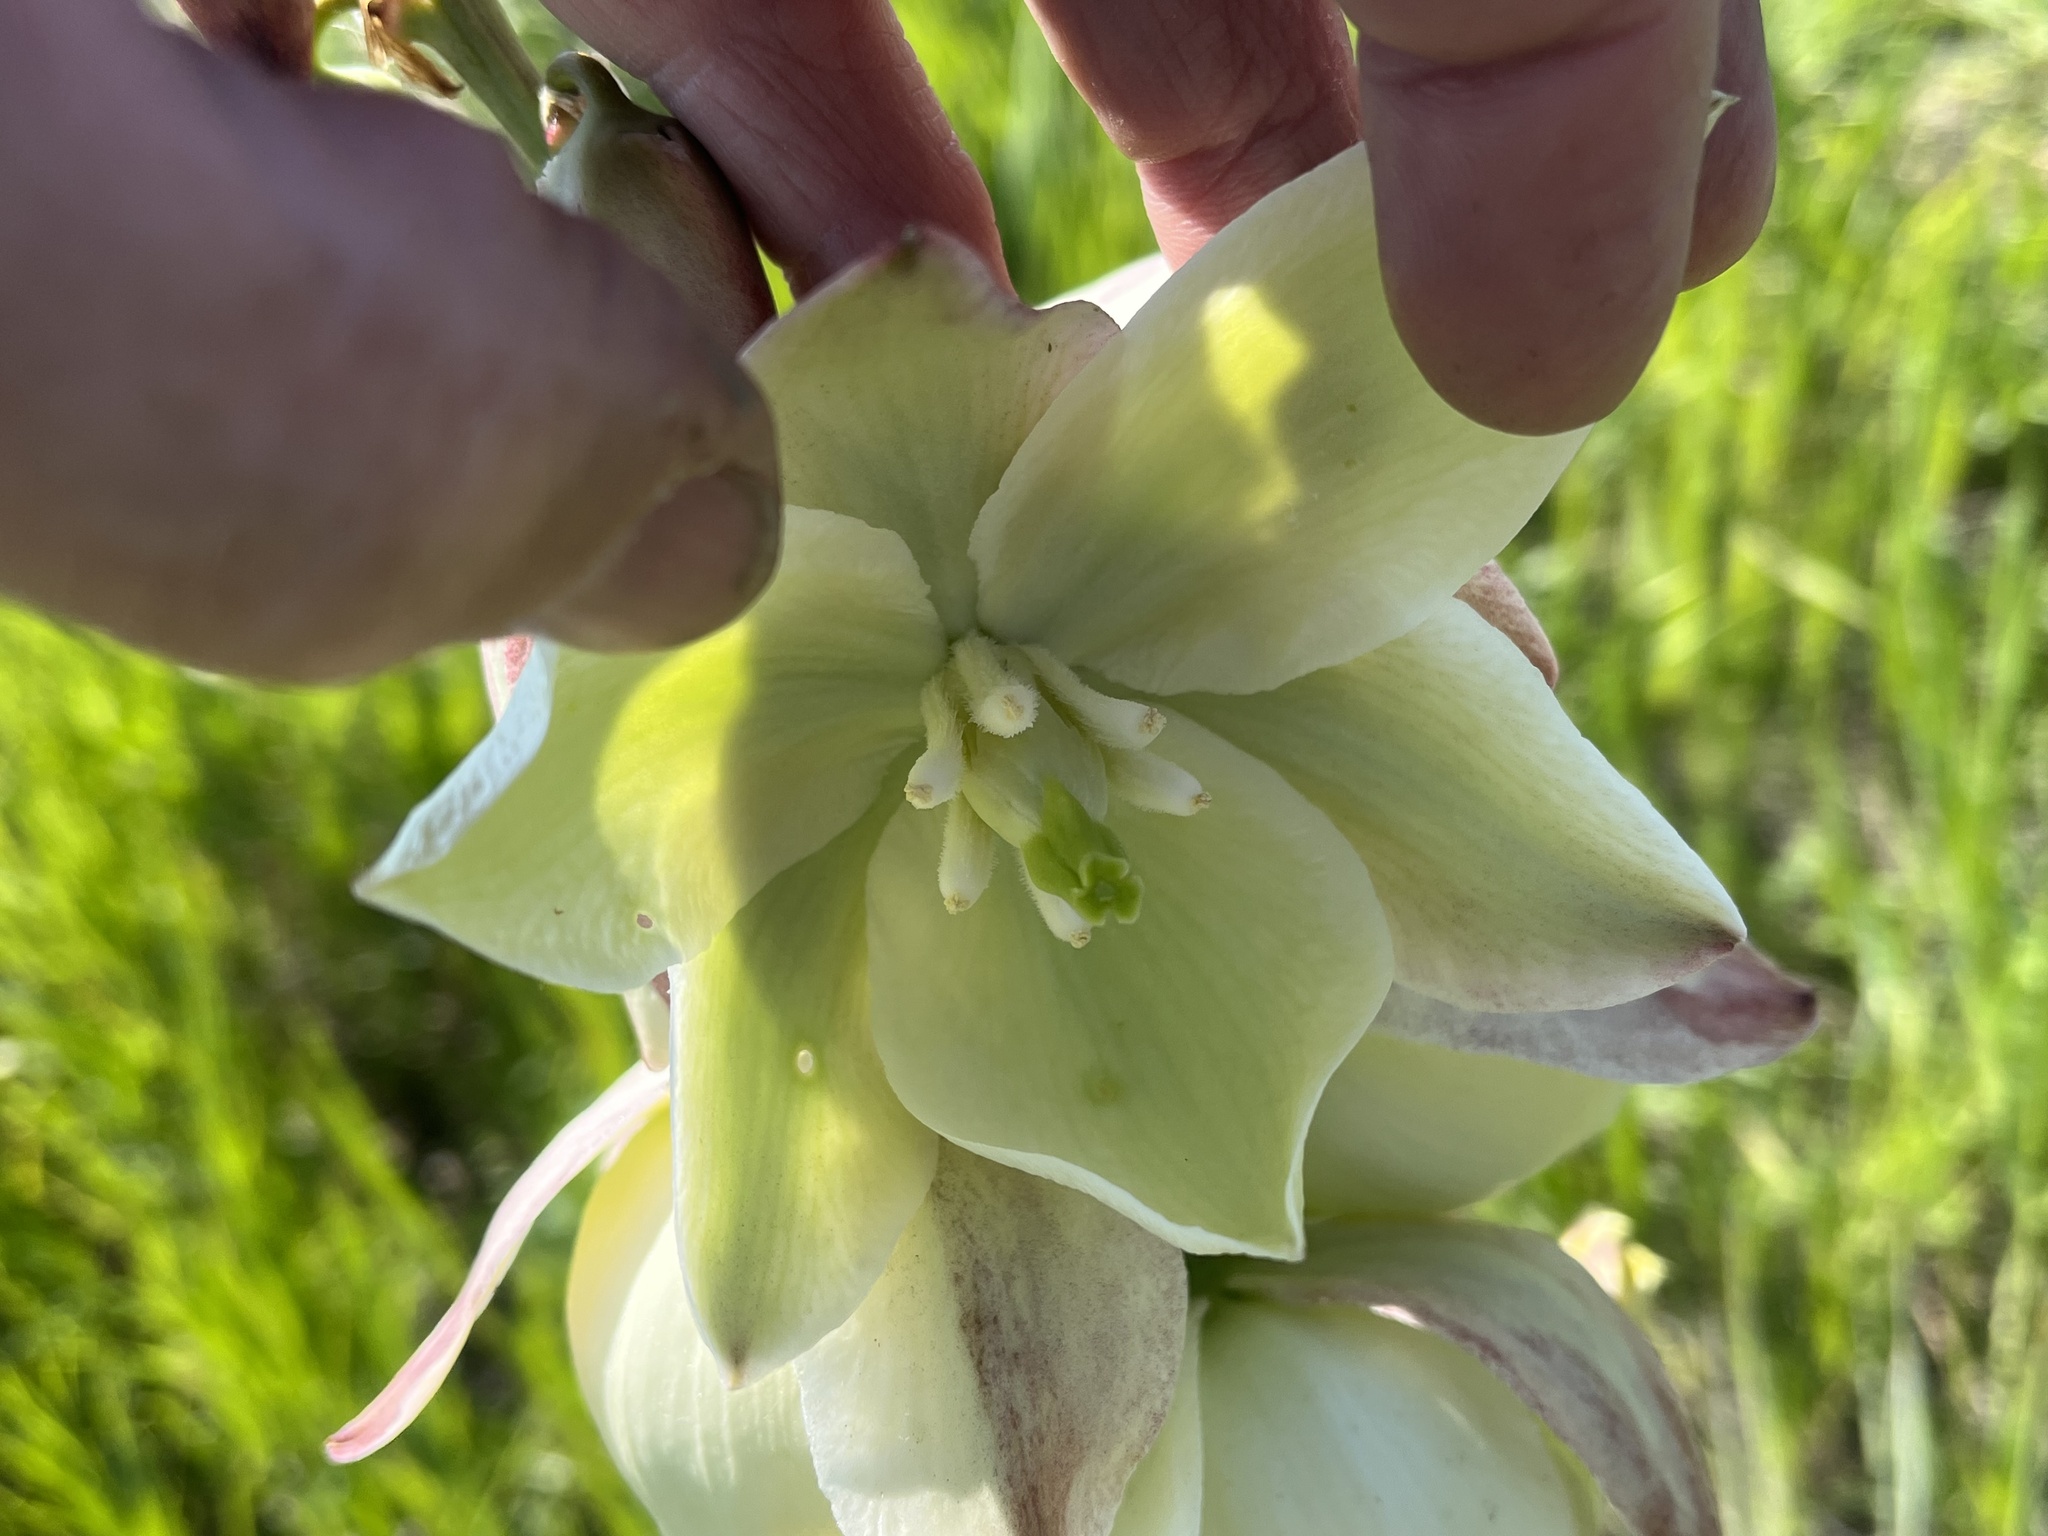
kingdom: Plantae
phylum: Tracheophyta
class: Liliopsida
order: Asparagales
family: Asparagaceae
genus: Yucca
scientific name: Yucca glauca
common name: Great plains yucca
